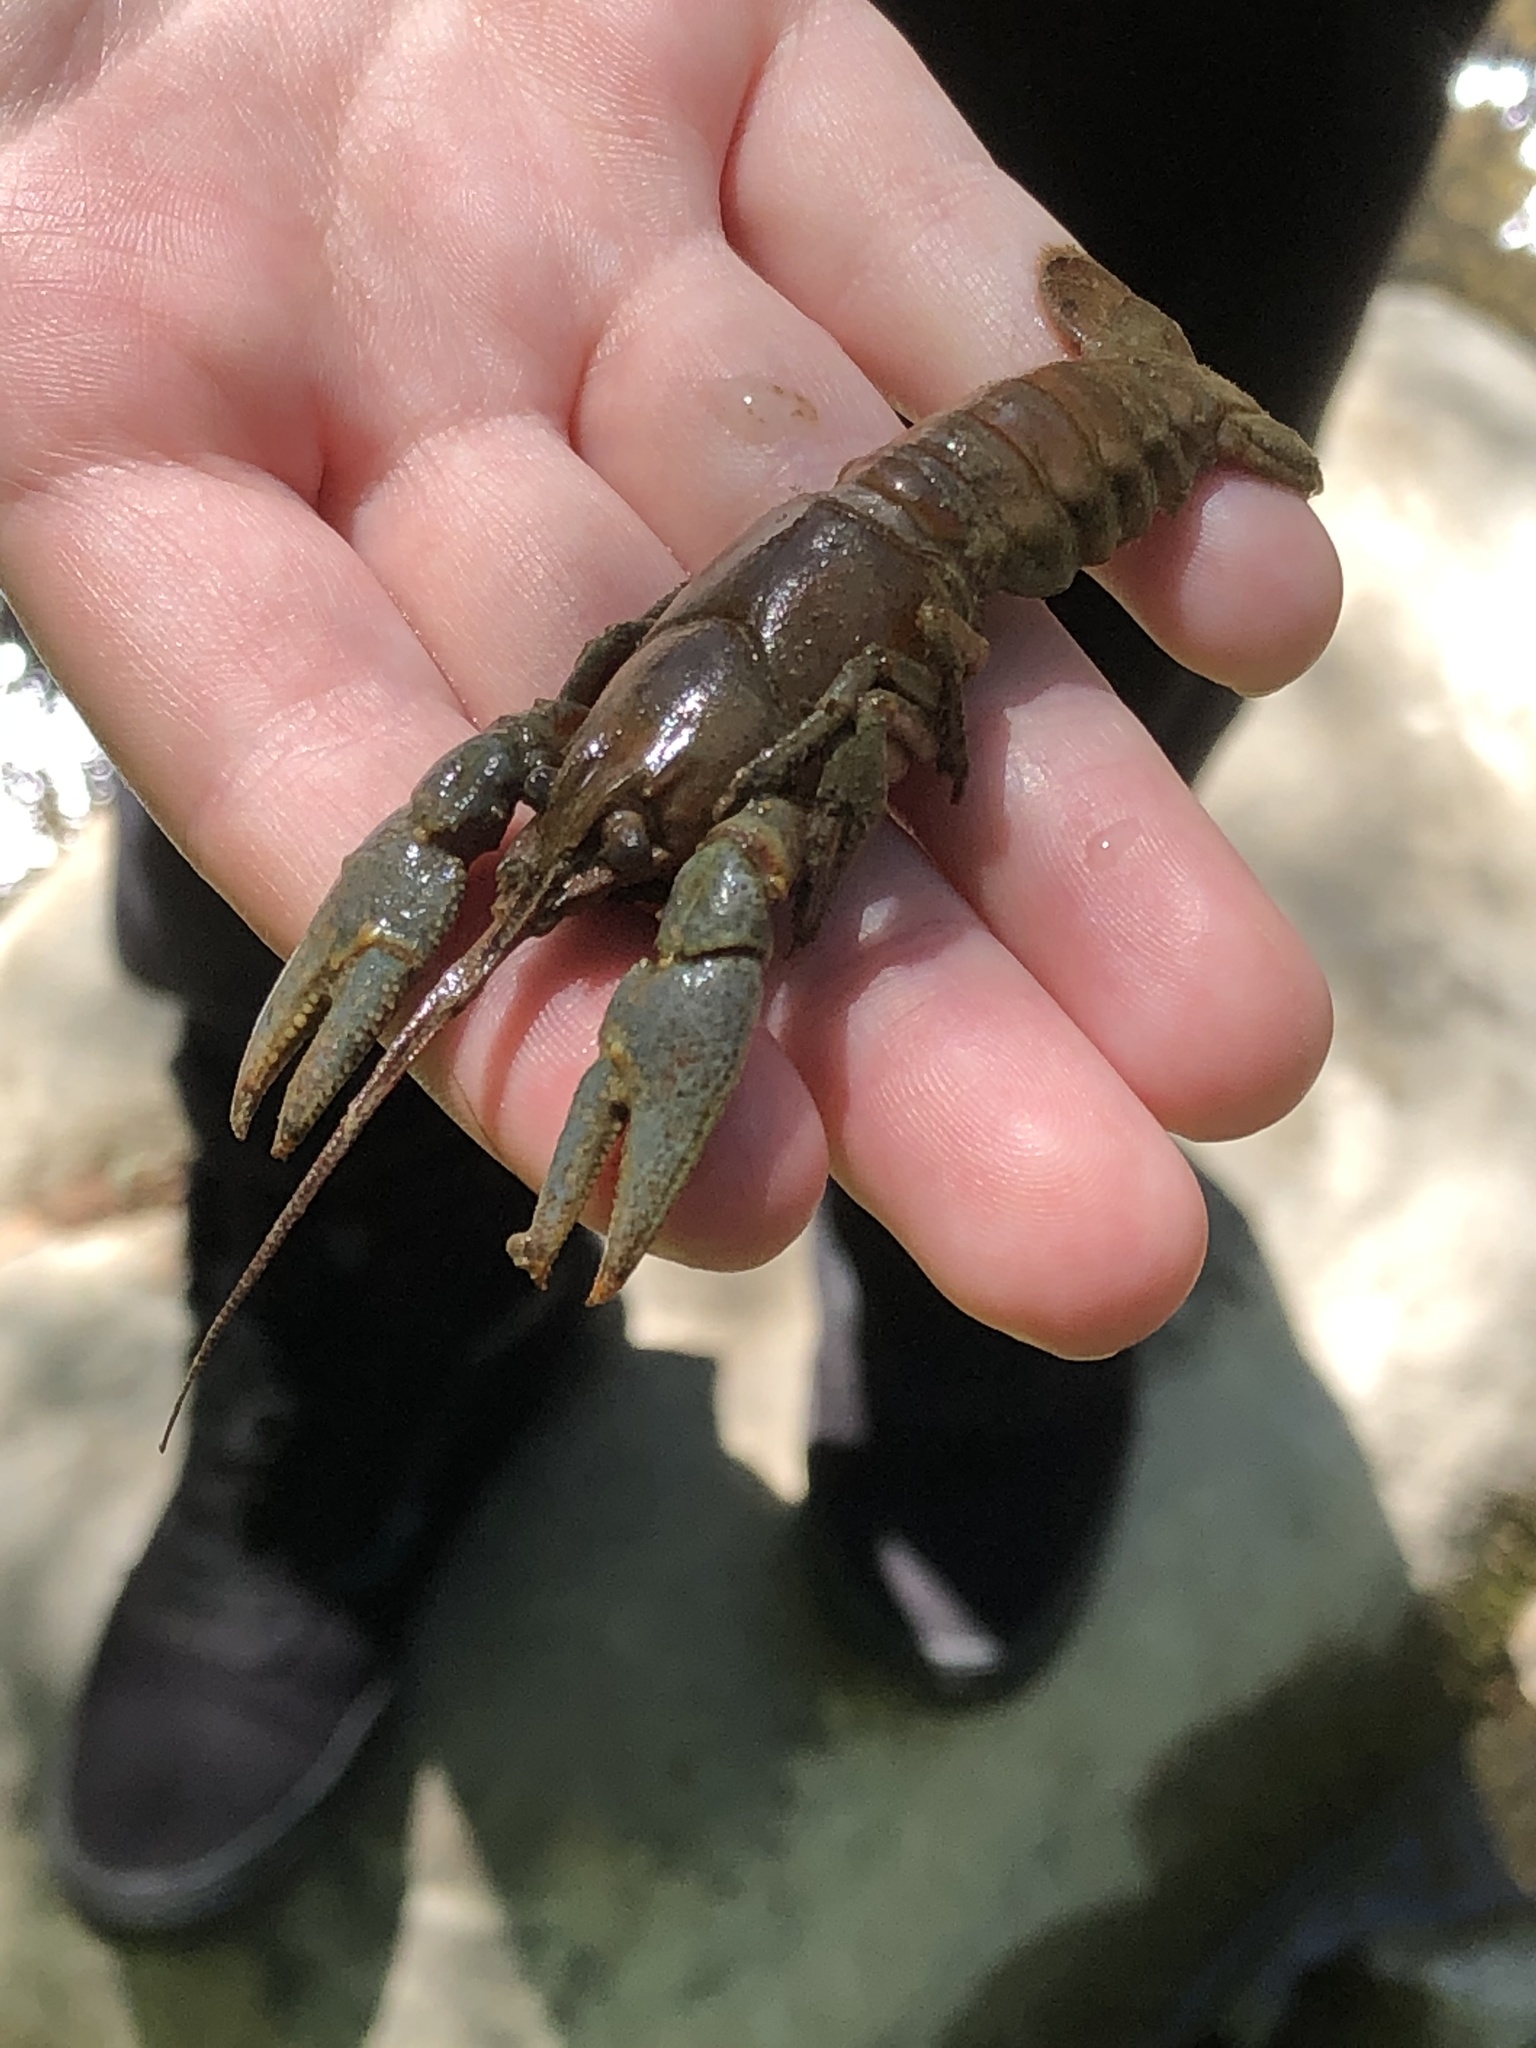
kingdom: Animalia
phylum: Arthropoda
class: Malacostraca
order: Decapoda
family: Cambaridae
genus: Faxonius
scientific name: Faxonius rusticus
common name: Rusty crayfish
